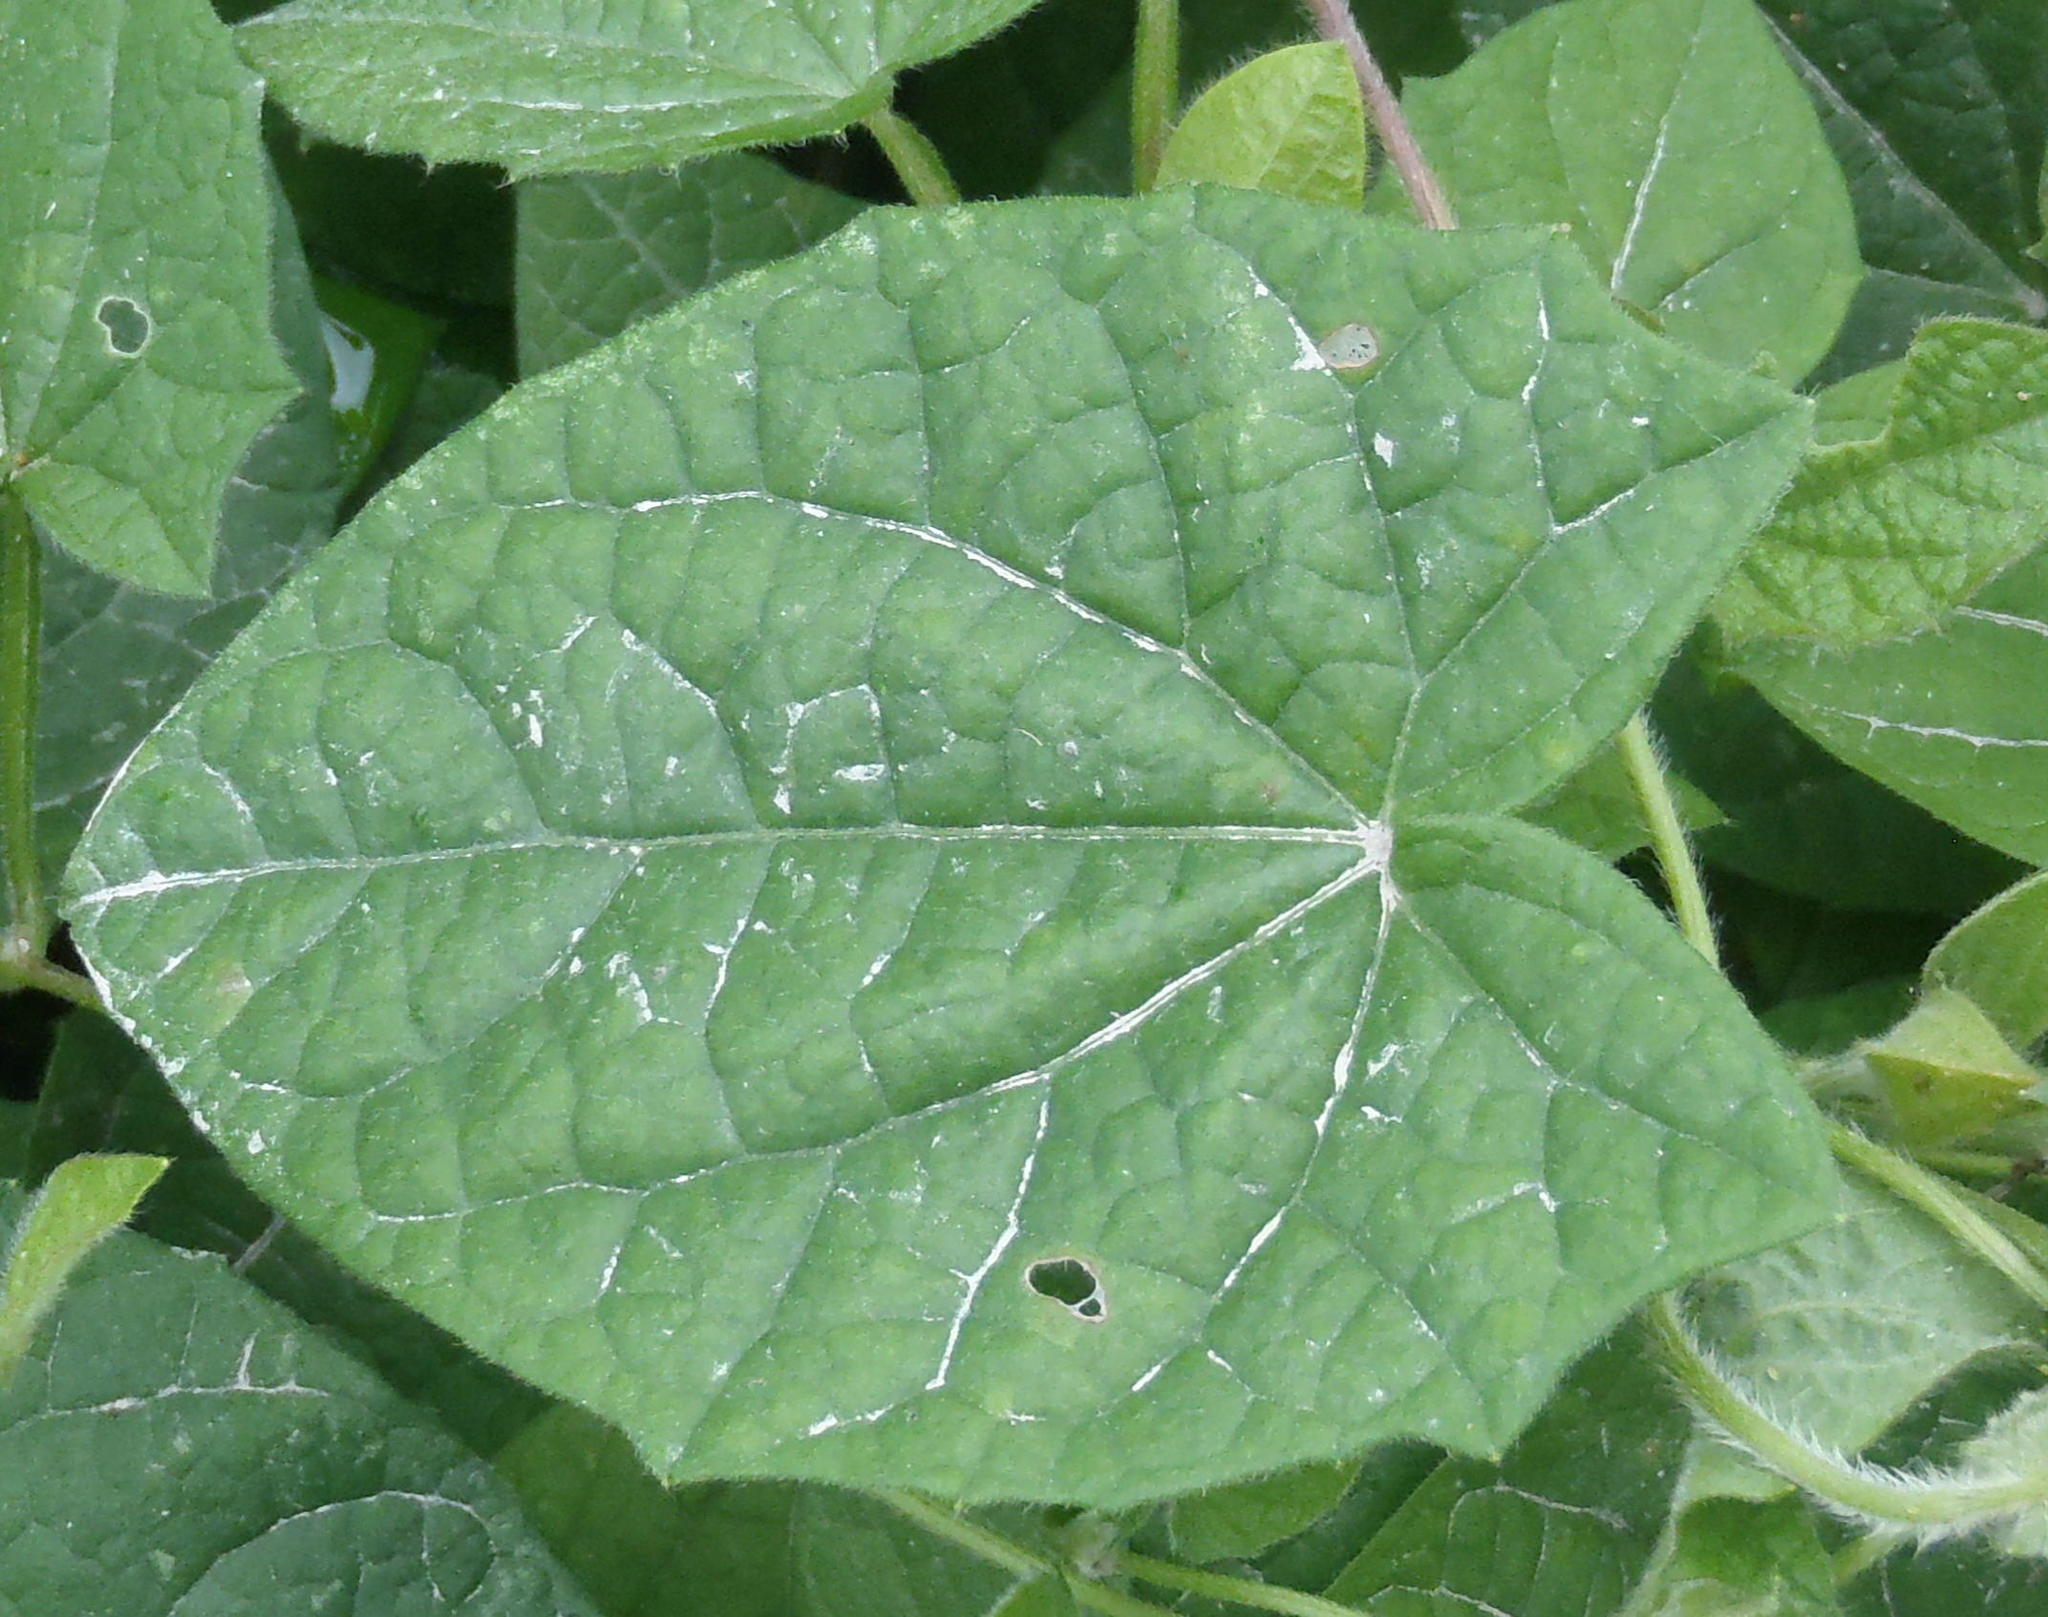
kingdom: Plantae
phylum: Tracheophyta
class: Magnoliopsida
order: Lamiales
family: Acanthaceae
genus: Thunbergia
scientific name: Thunbergia alata
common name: Blackeyed susan vine
